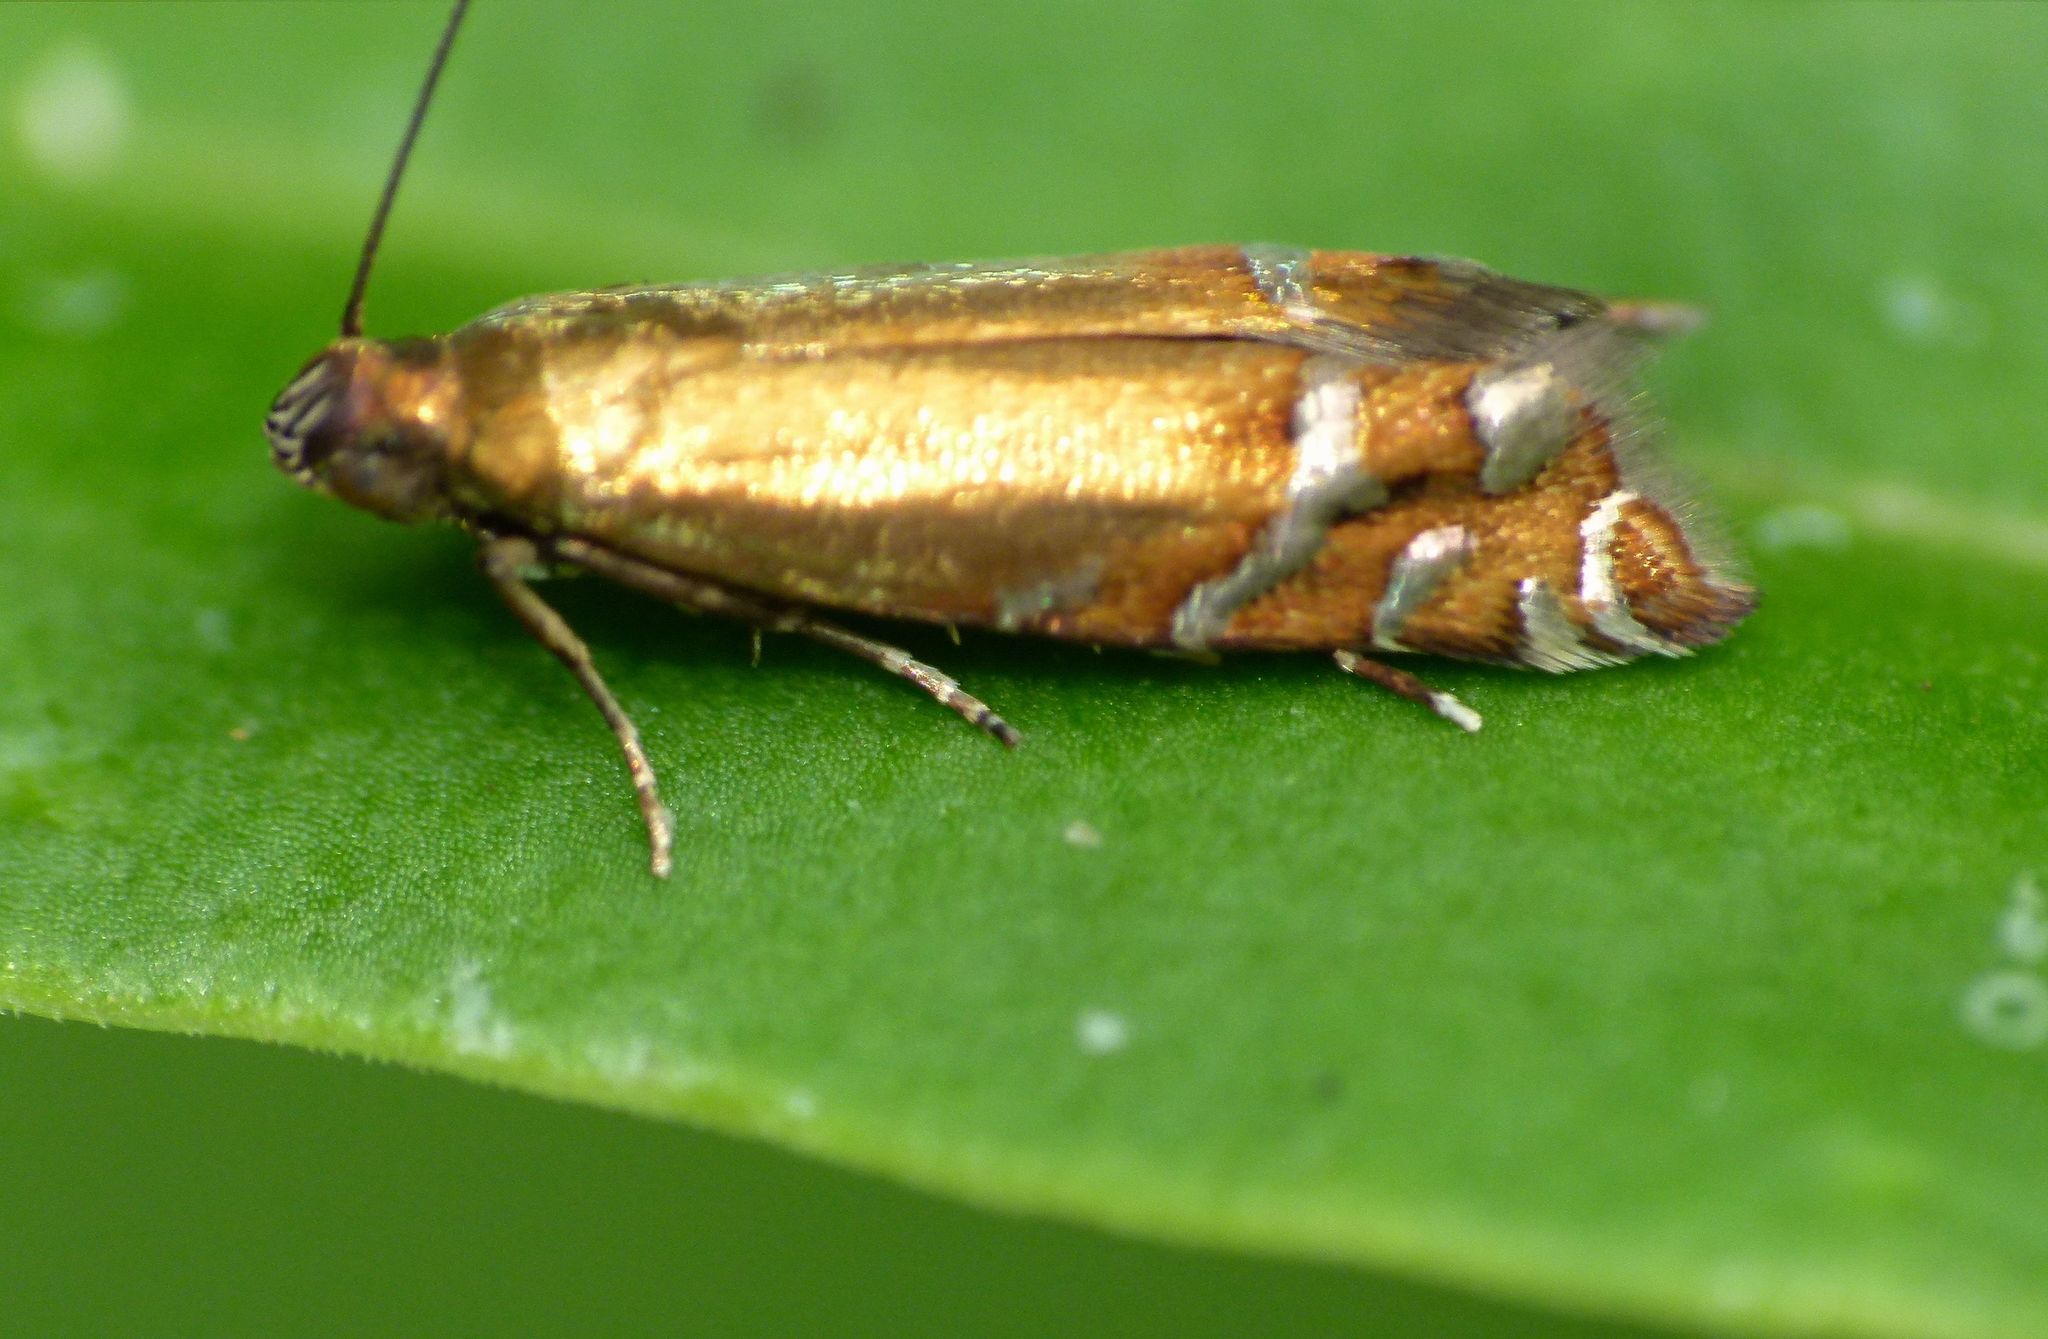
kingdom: Animalia
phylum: Arthropoda
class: Insecta
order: Lepidoptera
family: Glyphipterigidae
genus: Glyphipterix
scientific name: Glyphipterix astrapaea
